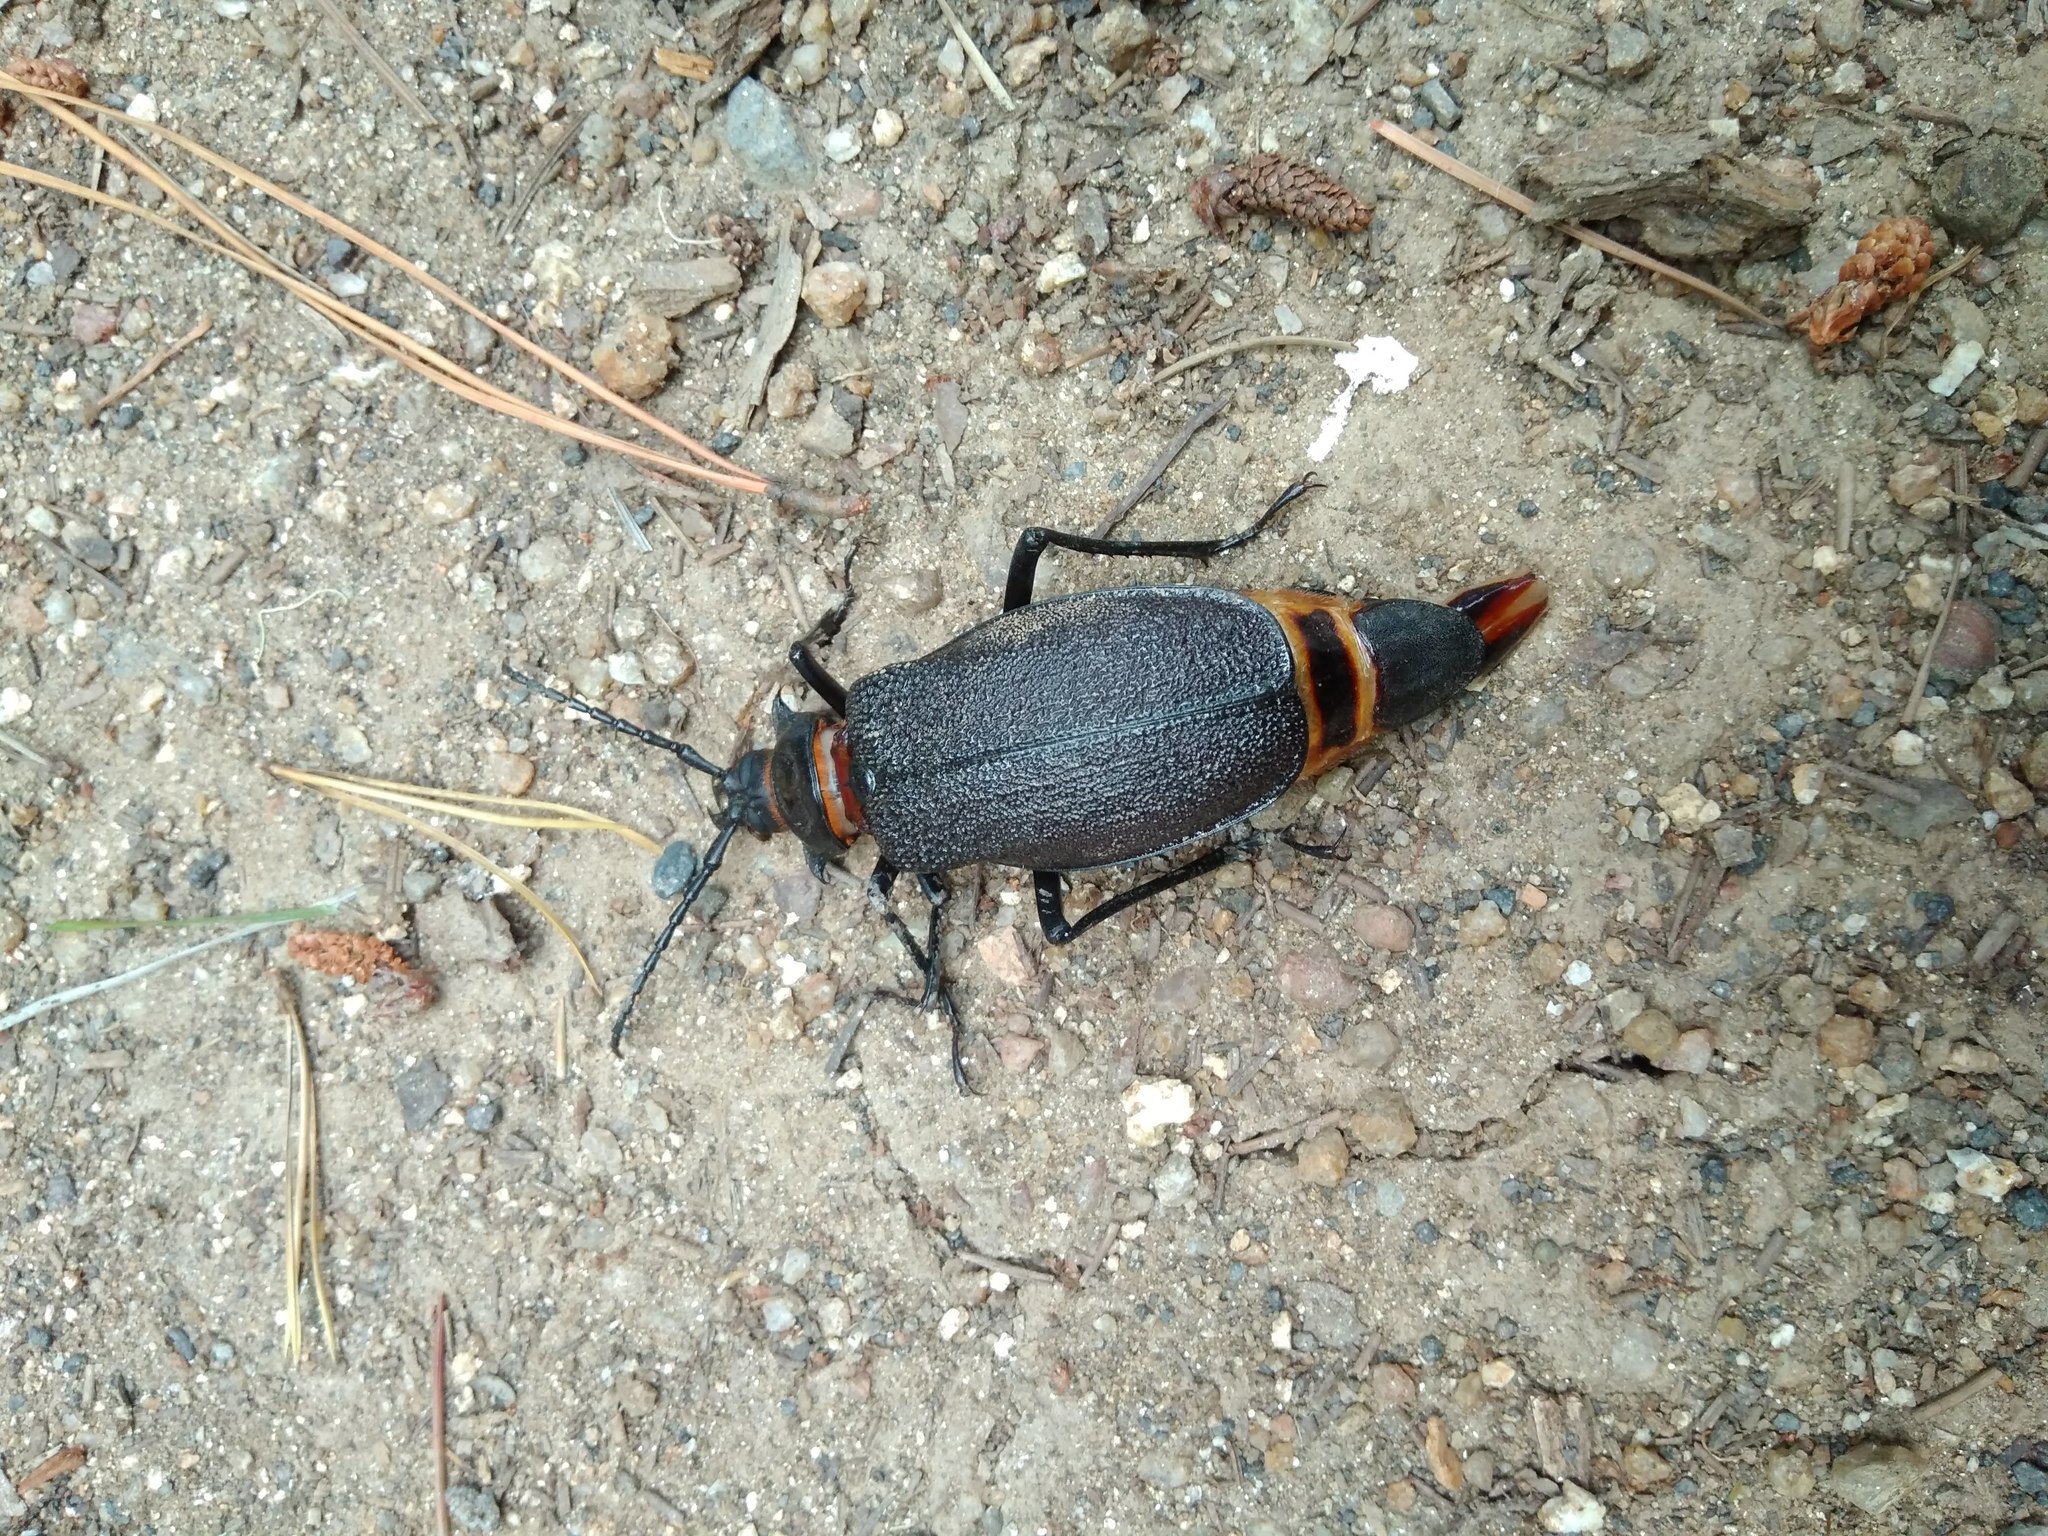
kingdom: Animalia
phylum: Arthropoda
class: Insecta
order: Coleoptera
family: Cerambycidae
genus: Acanthinodera
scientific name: Acanthinodera cumingii
